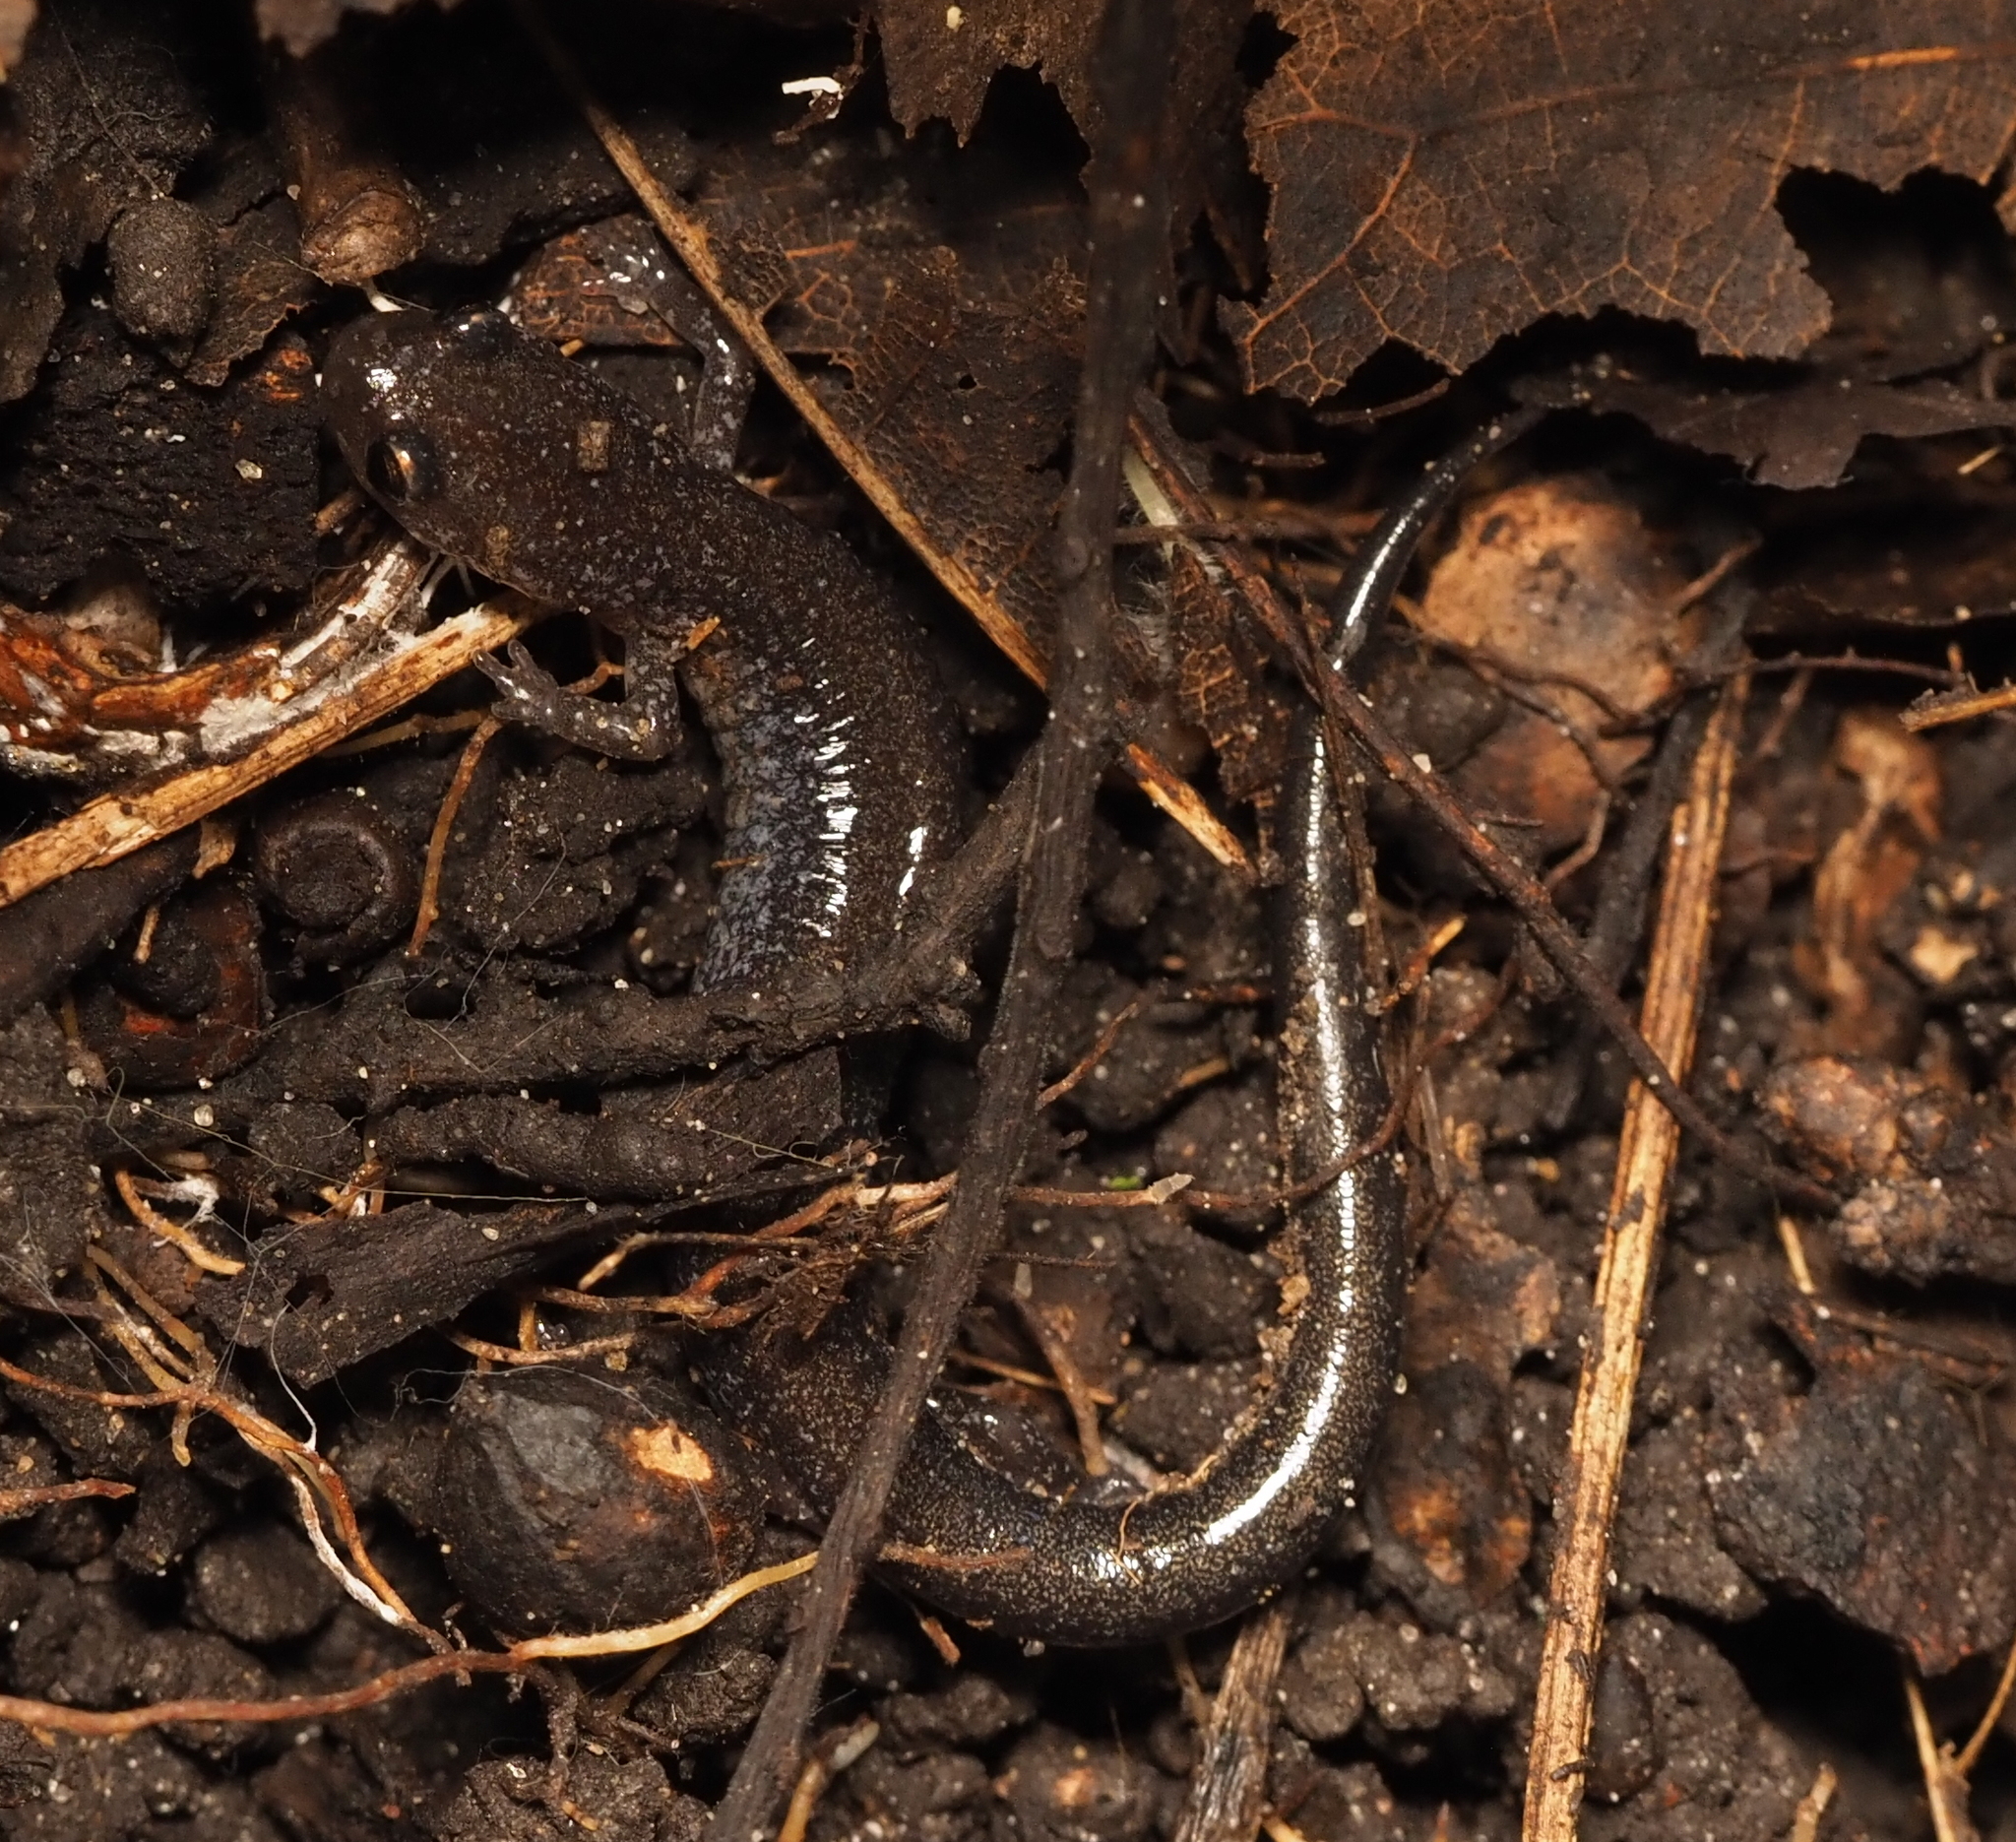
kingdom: Animalia
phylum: Chordata
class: Amphibia
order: Caudata
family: Plethodontidae
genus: Plethodon
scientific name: Plethodon cinereus
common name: Redback salamander
